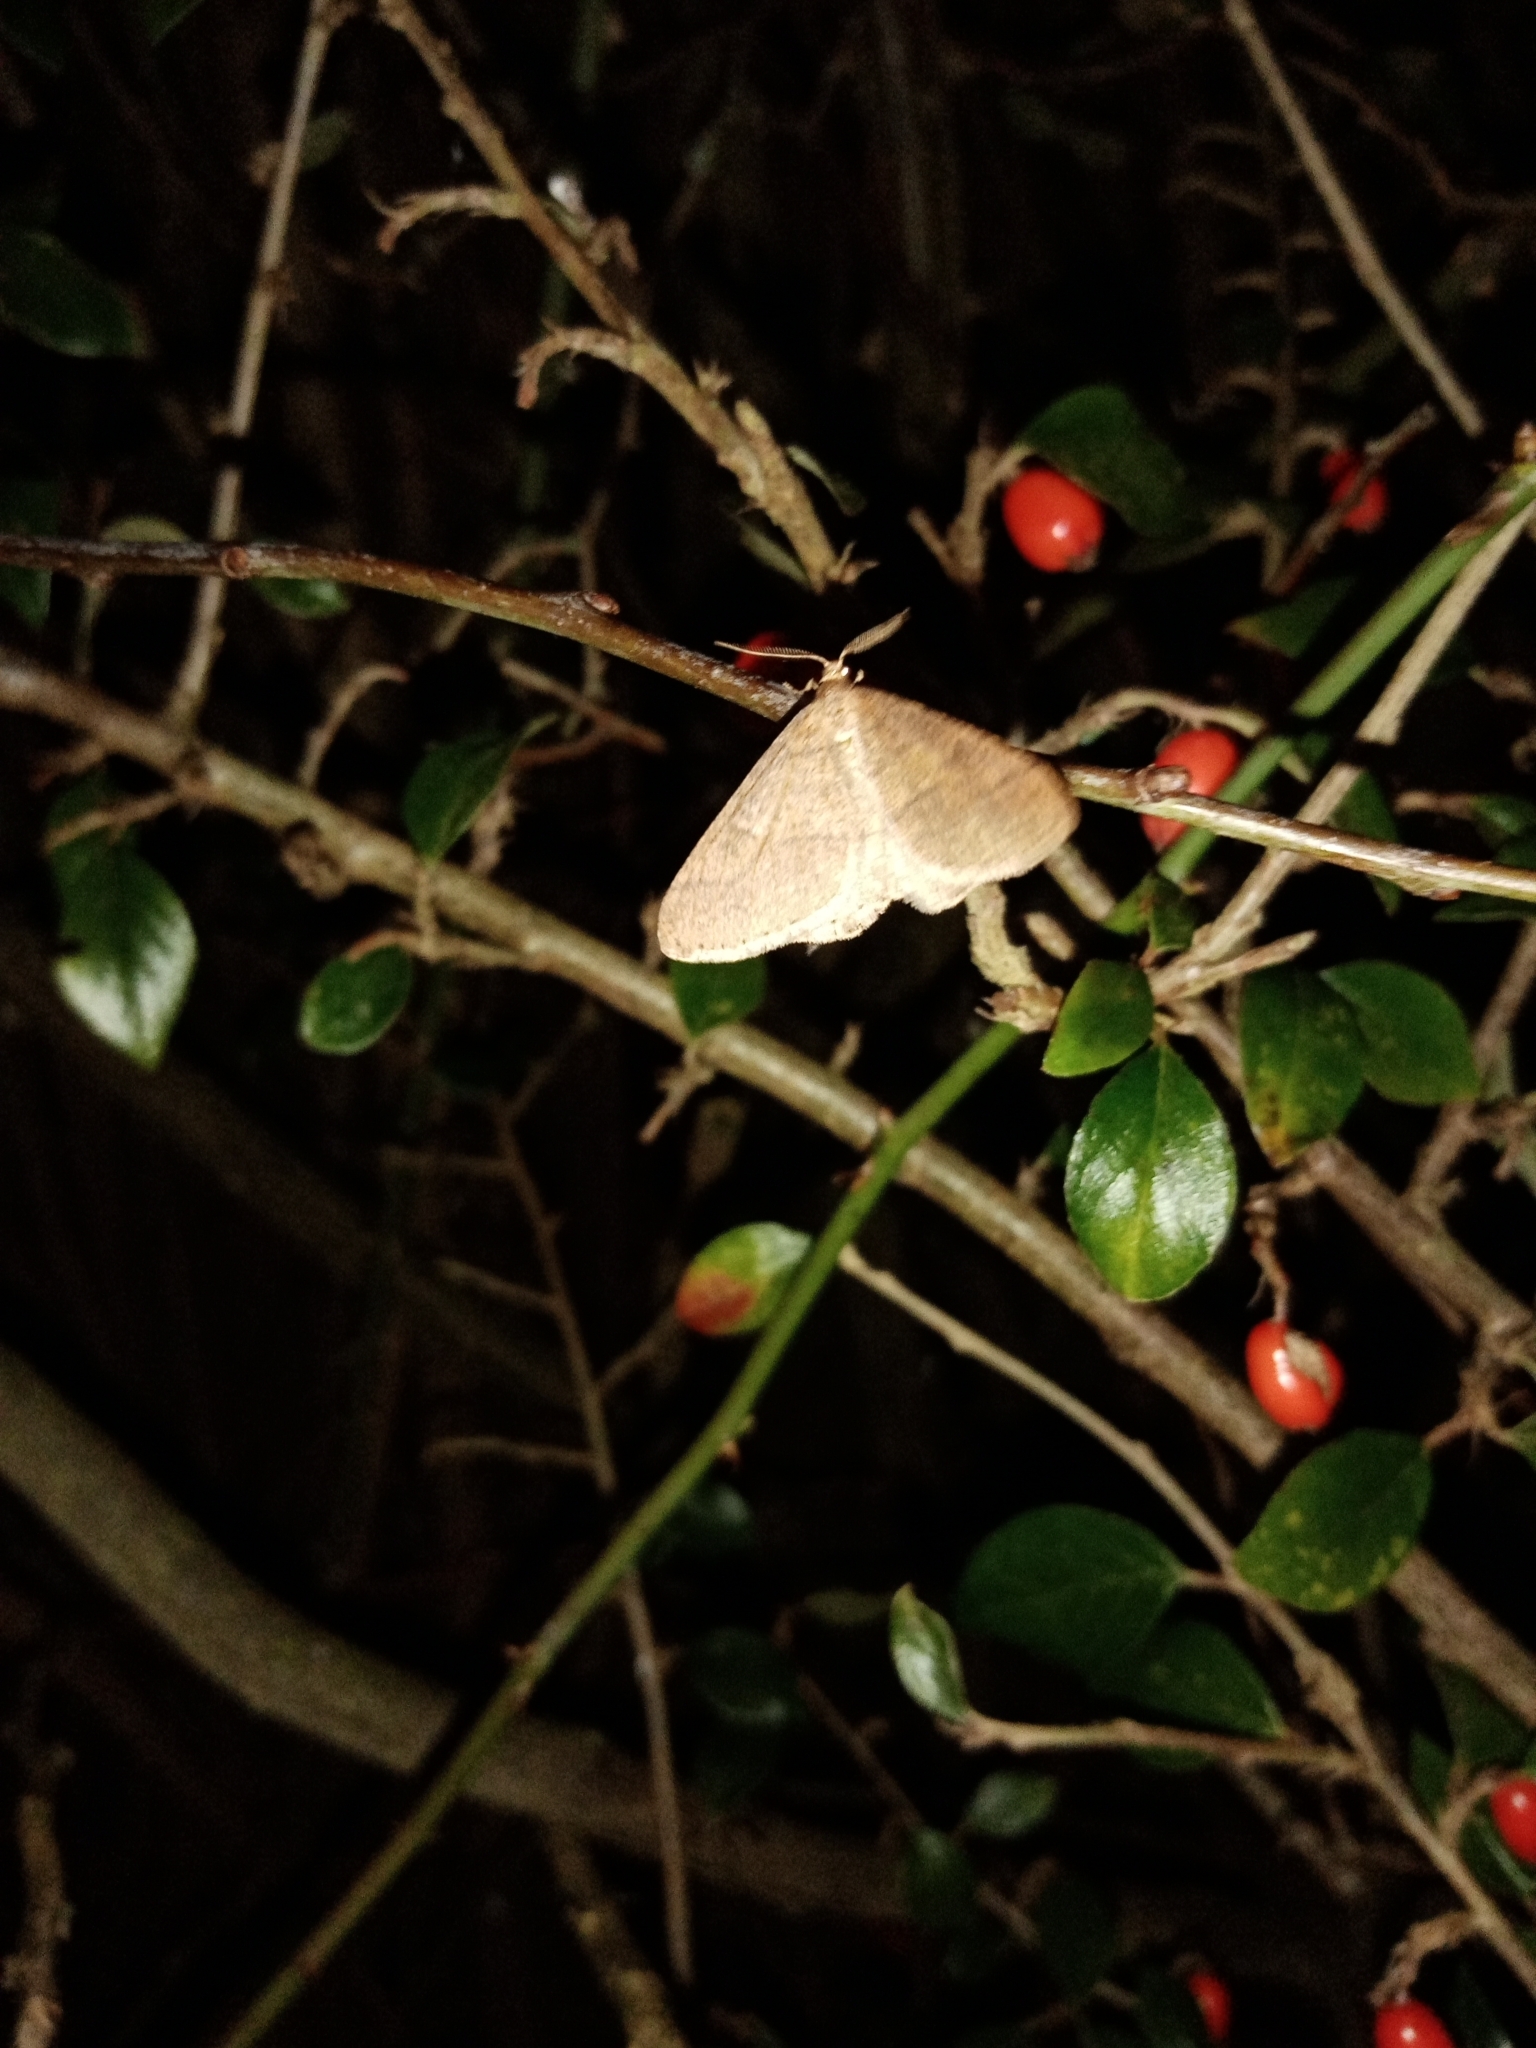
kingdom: Animalia
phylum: Arthropoda
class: Insecta
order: Lepidoptera
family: Geometridae
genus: Agriopis
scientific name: Agriopis marginaria
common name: Dotted border
